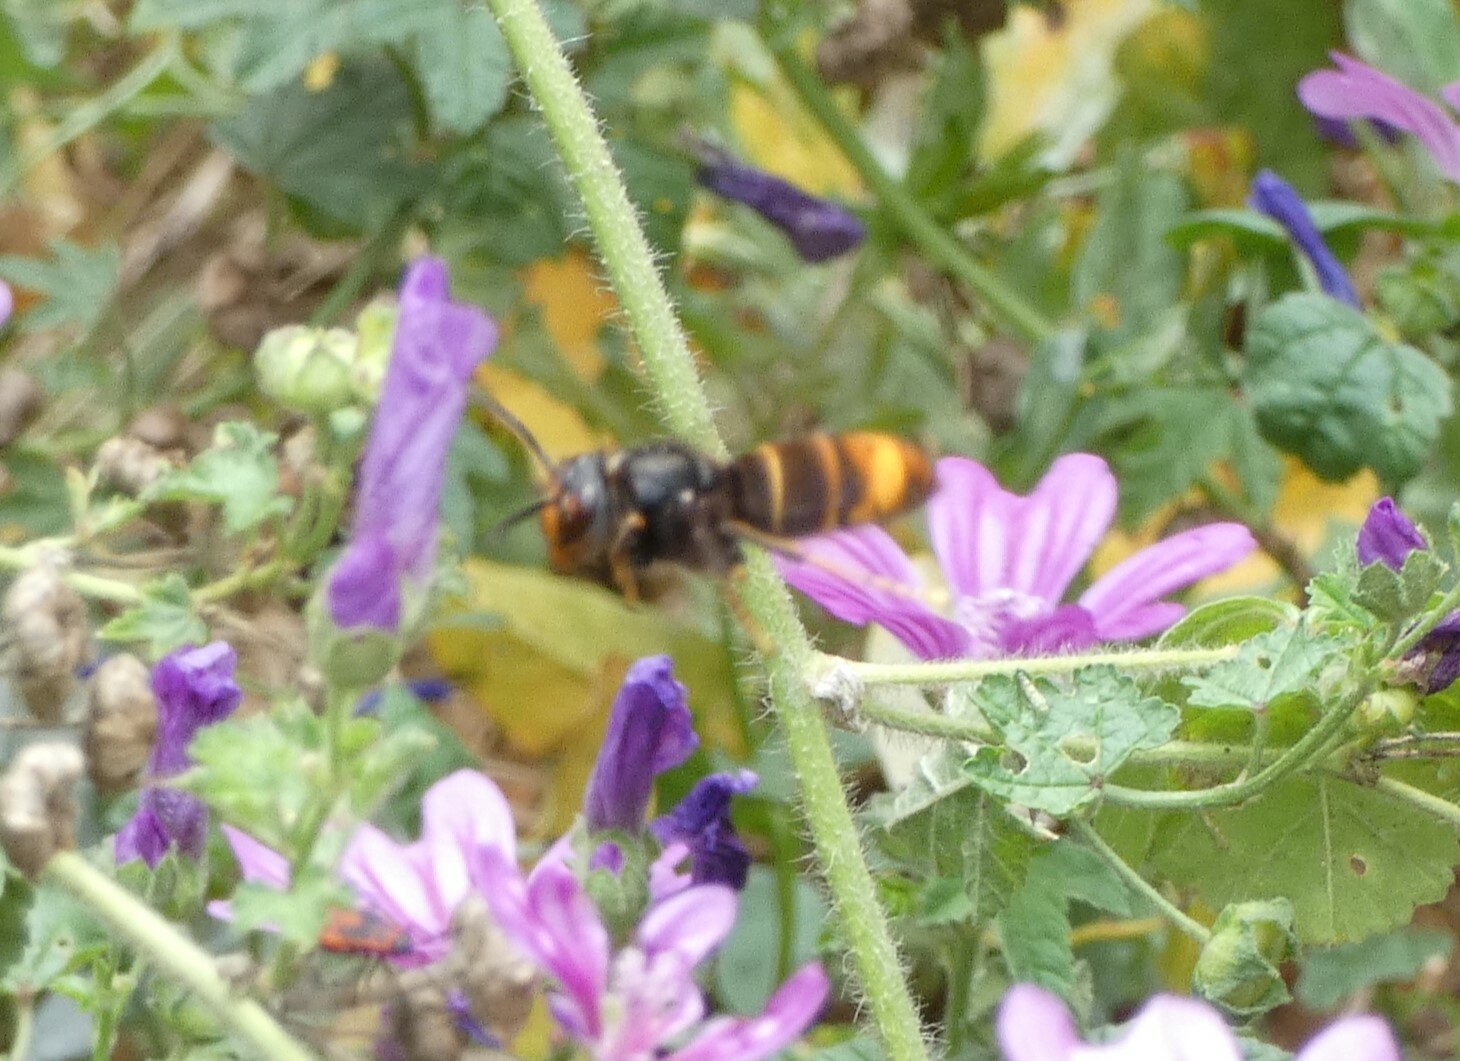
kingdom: Animalia
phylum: Arthropoda
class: Insecta
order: Hymenoptera
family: Vespidae
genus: Vespa
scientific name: Vespa velutina
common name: Asian hornet
